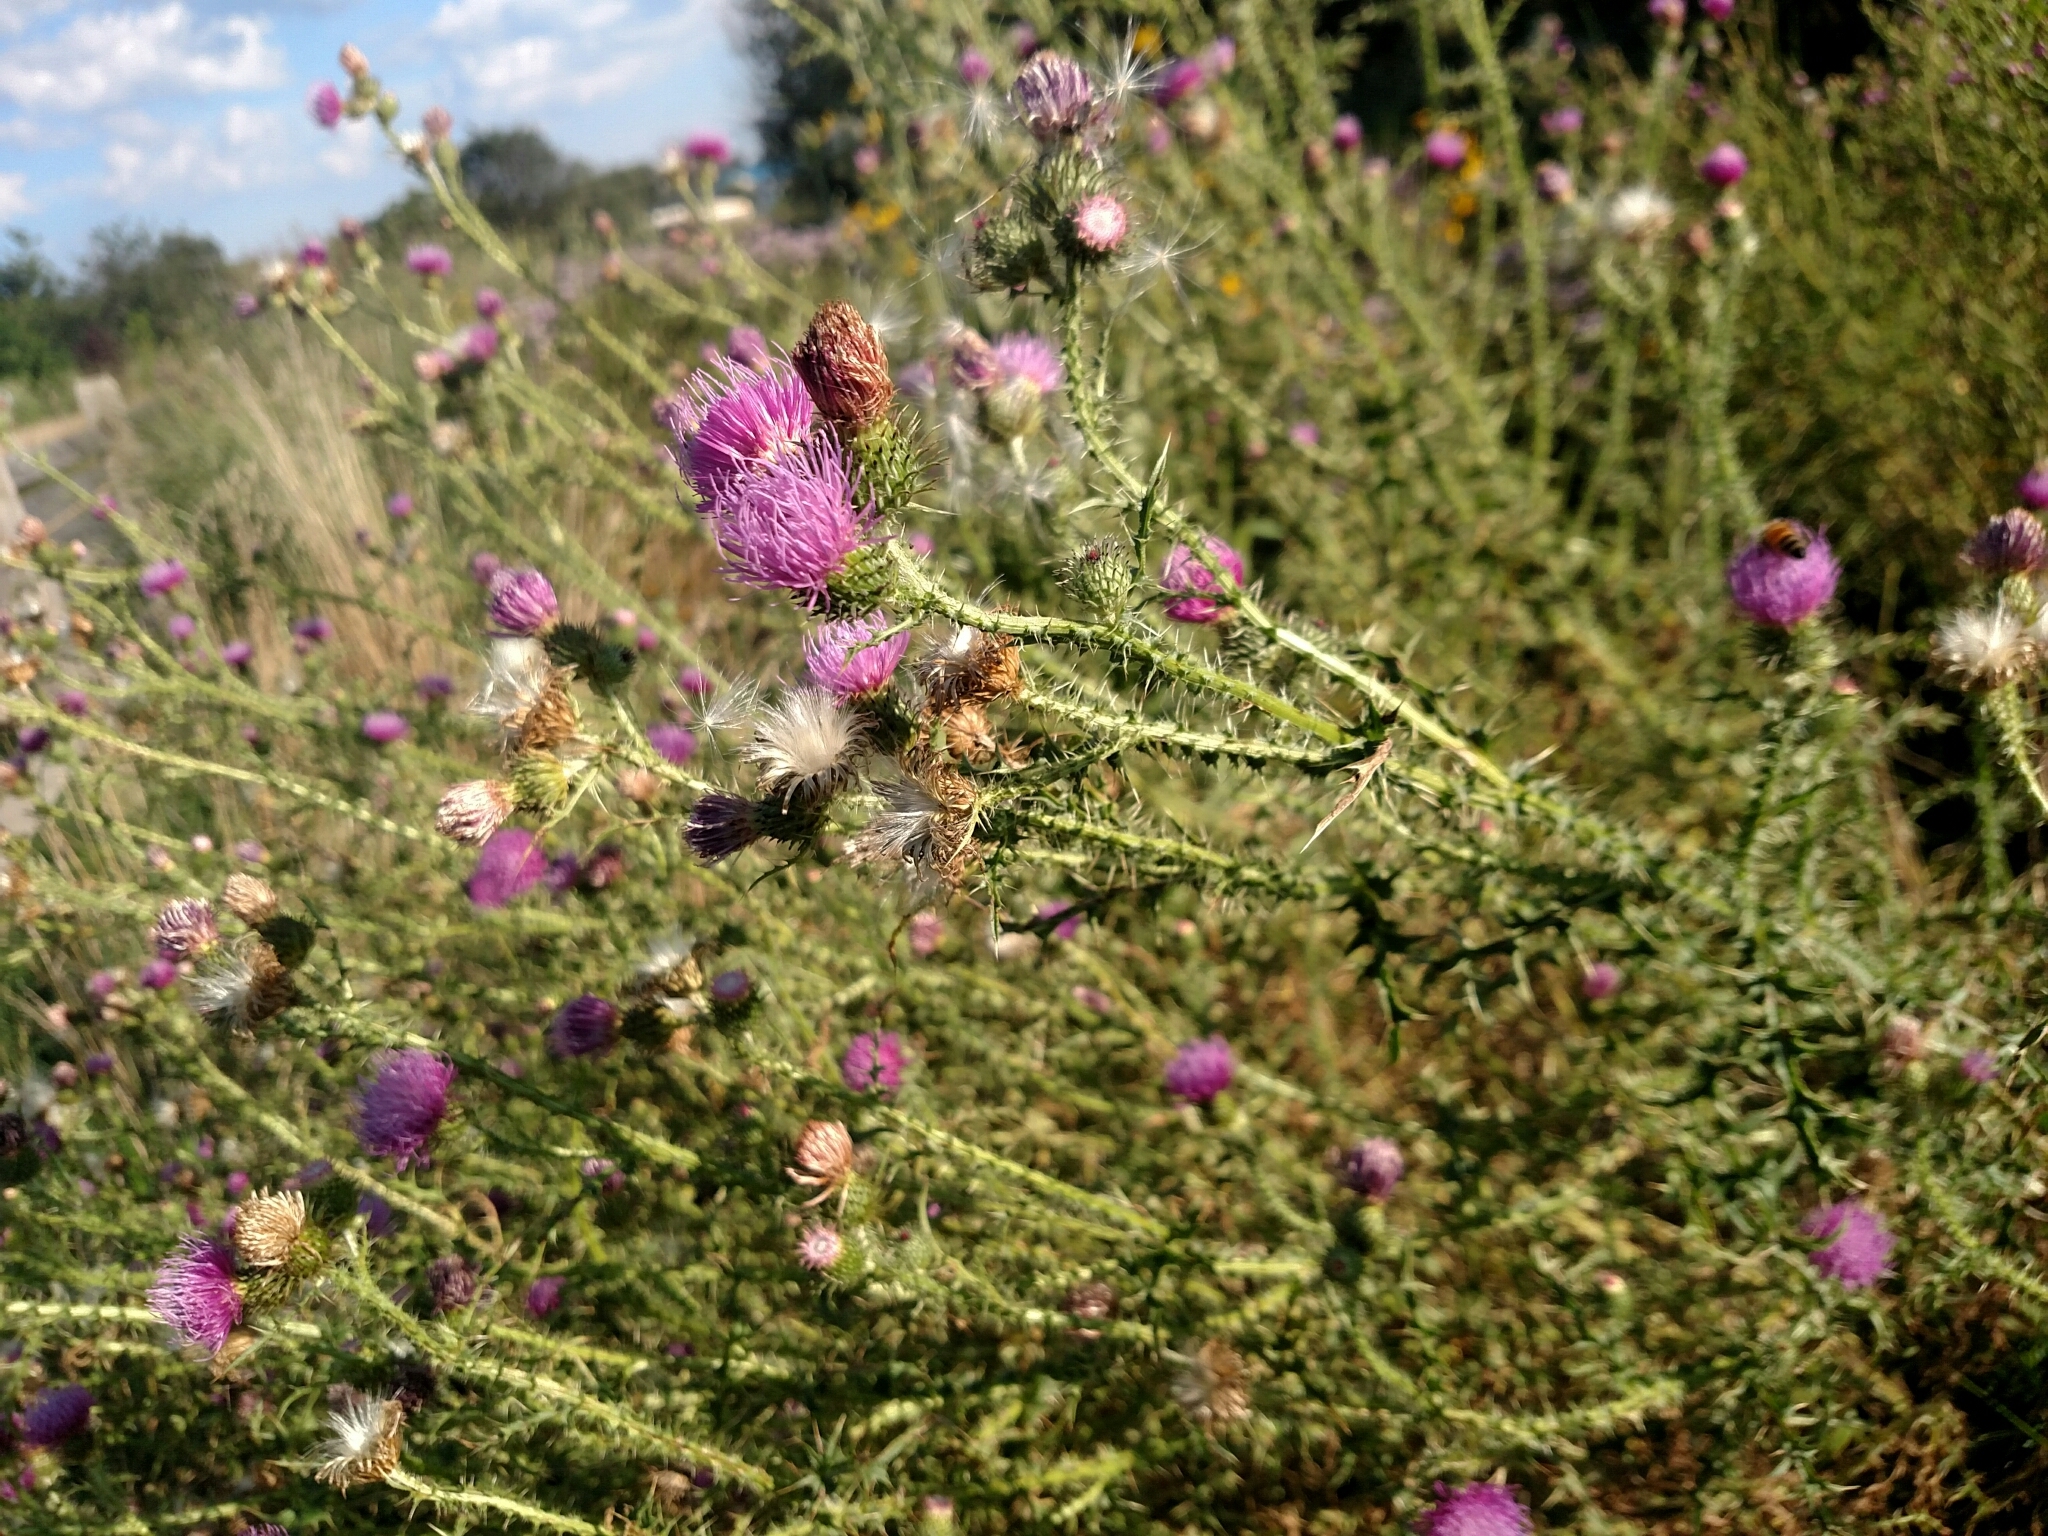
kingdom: Plantae
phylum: Tracheophyta
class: Magnoliopsida
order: Asterales
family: Asteraceae
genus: Carduus
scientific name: Carduus acanthoides
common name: Plumeless thistle
